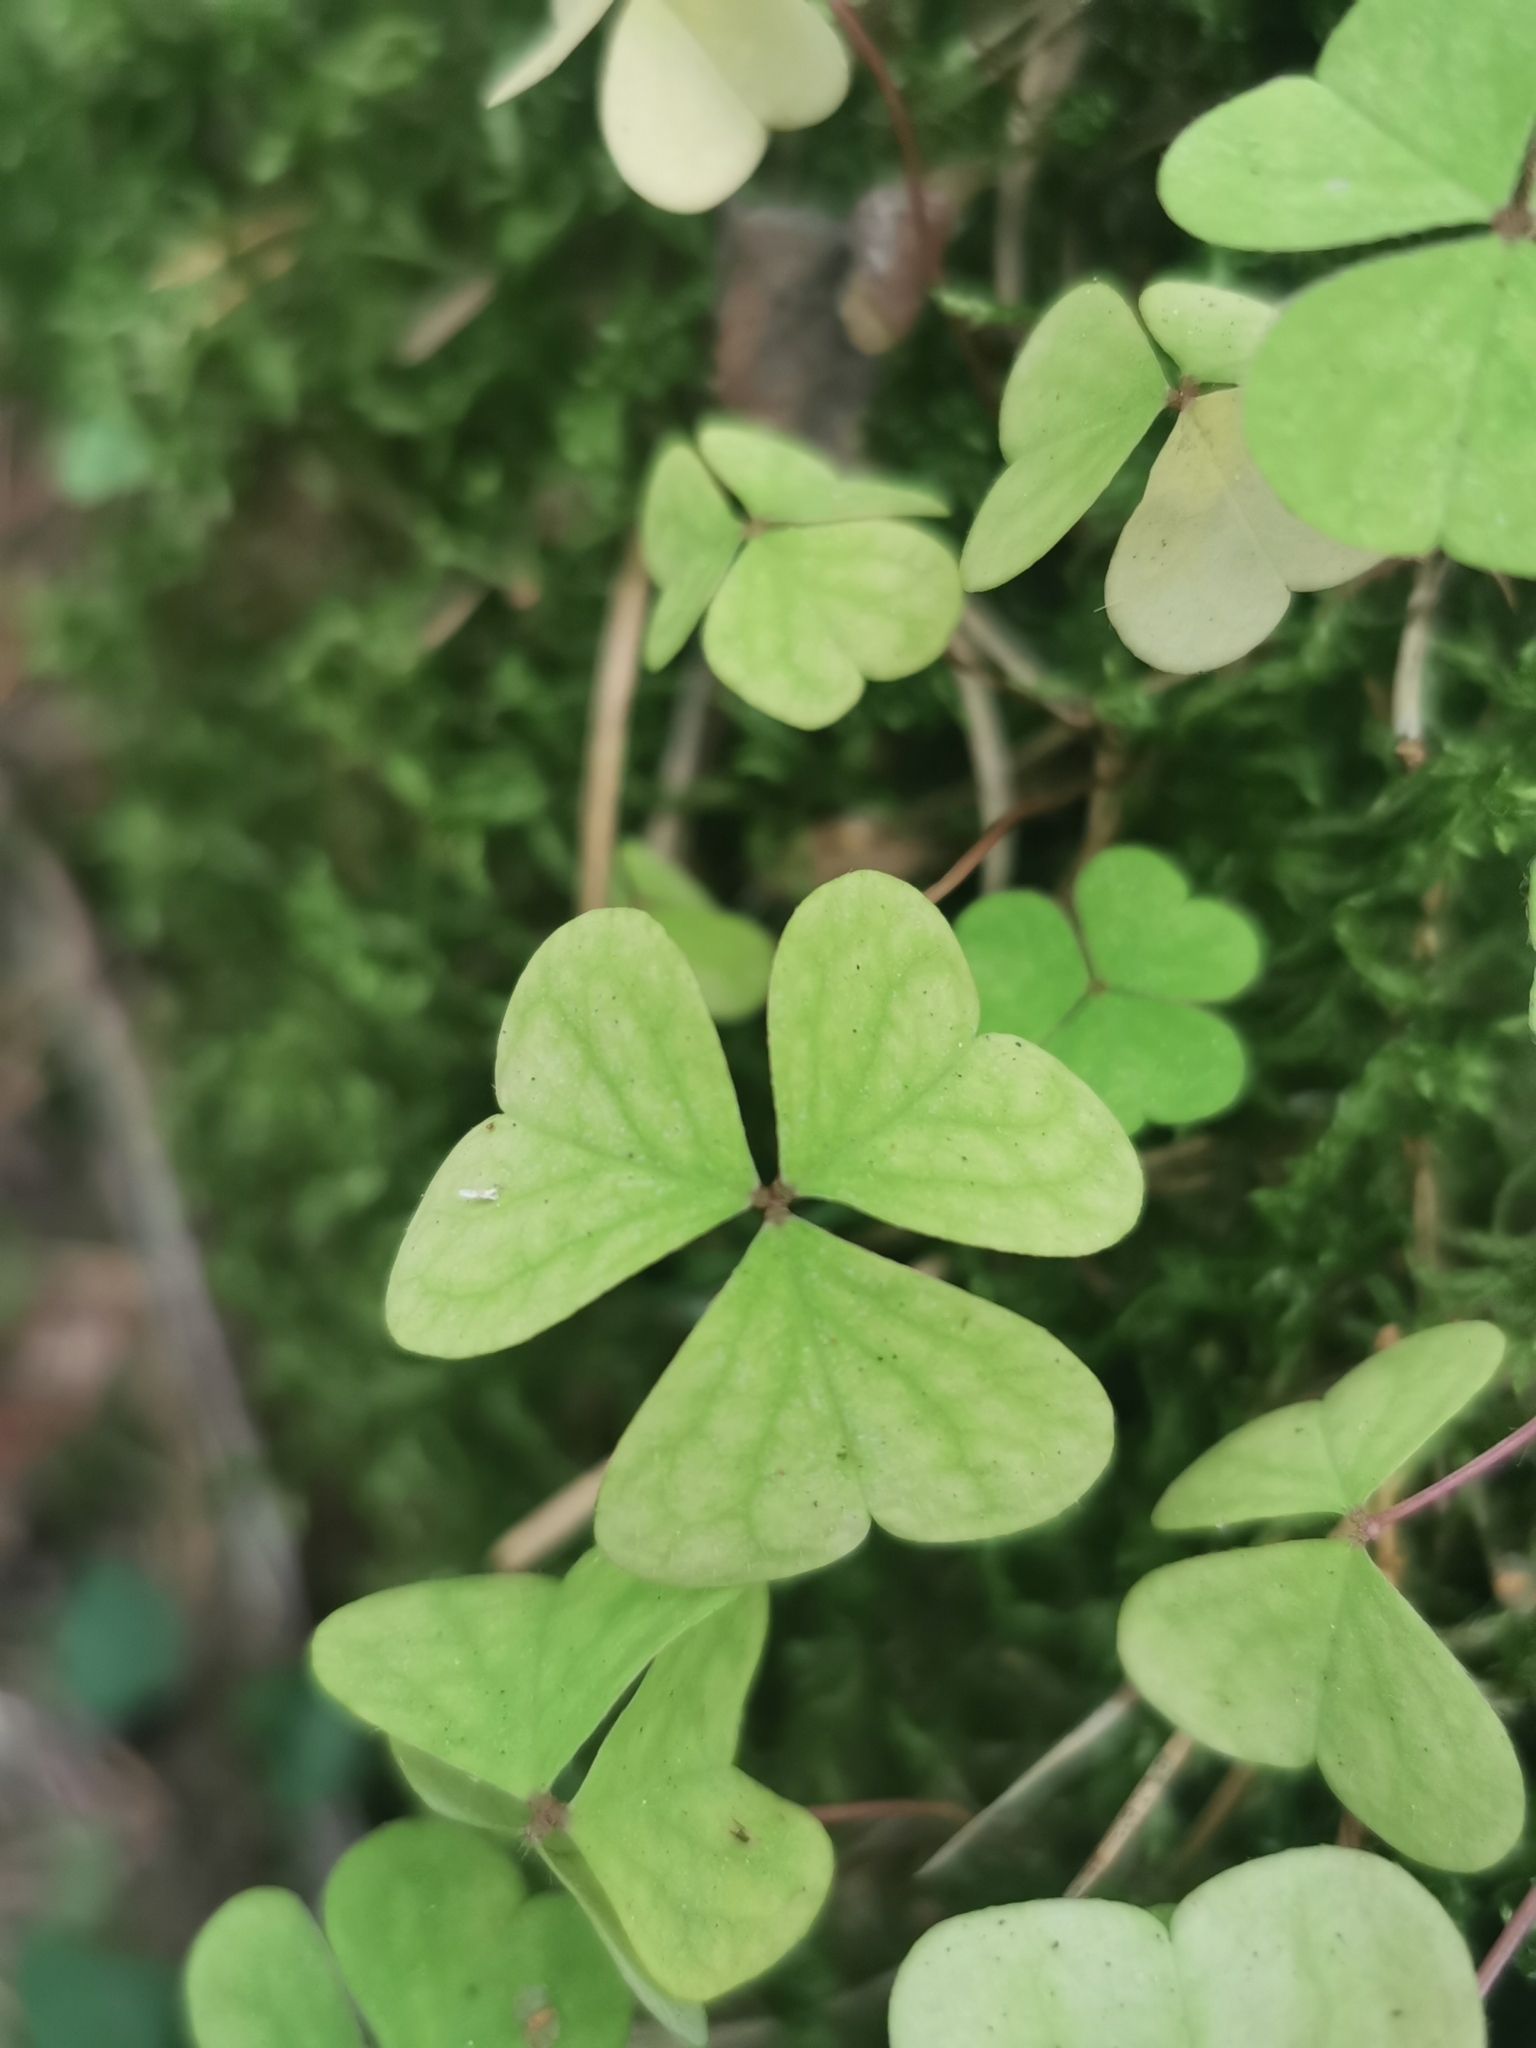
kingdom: Plantae
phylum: Tracheophyta
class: Magnoliopsida
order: Oxalidales
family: Oxalidaceae
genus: Oxalis
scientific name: Oxalis acetosella
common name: Wood-sorrel
